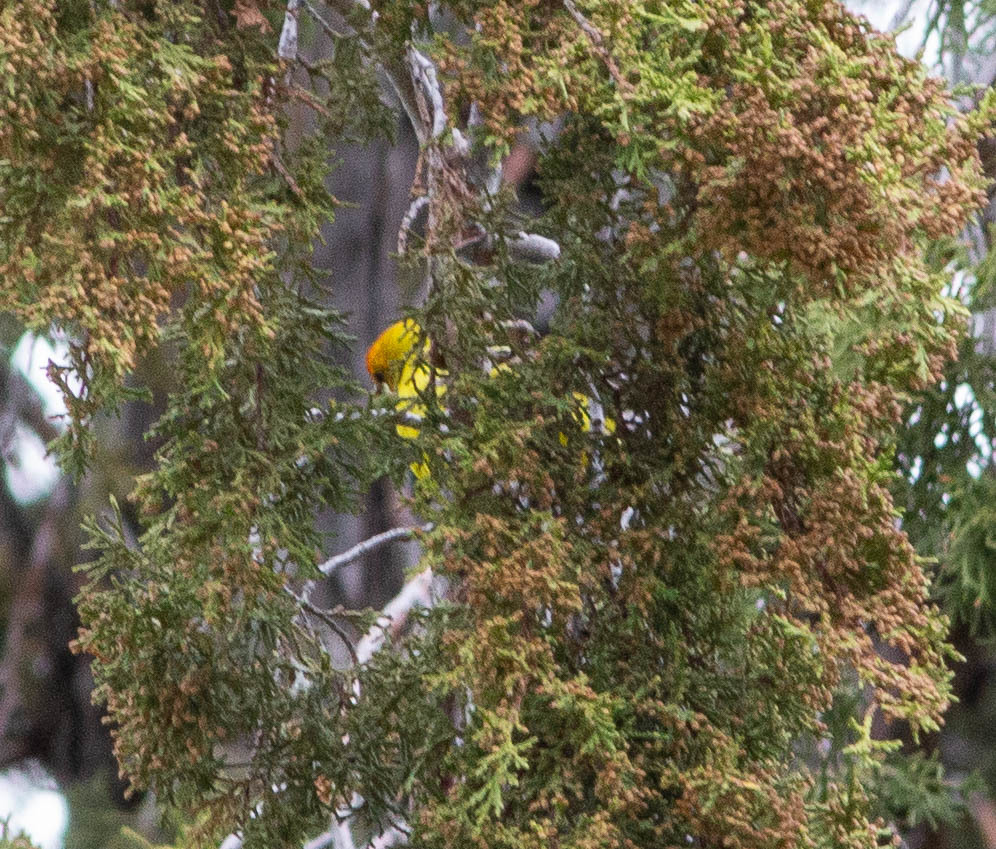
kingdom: Animalia
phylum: Chordata
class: Aves
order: Passeriformes
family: Cardinalidae
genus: Piranga
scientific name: Piranga ludoviciana
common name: Western tanager
